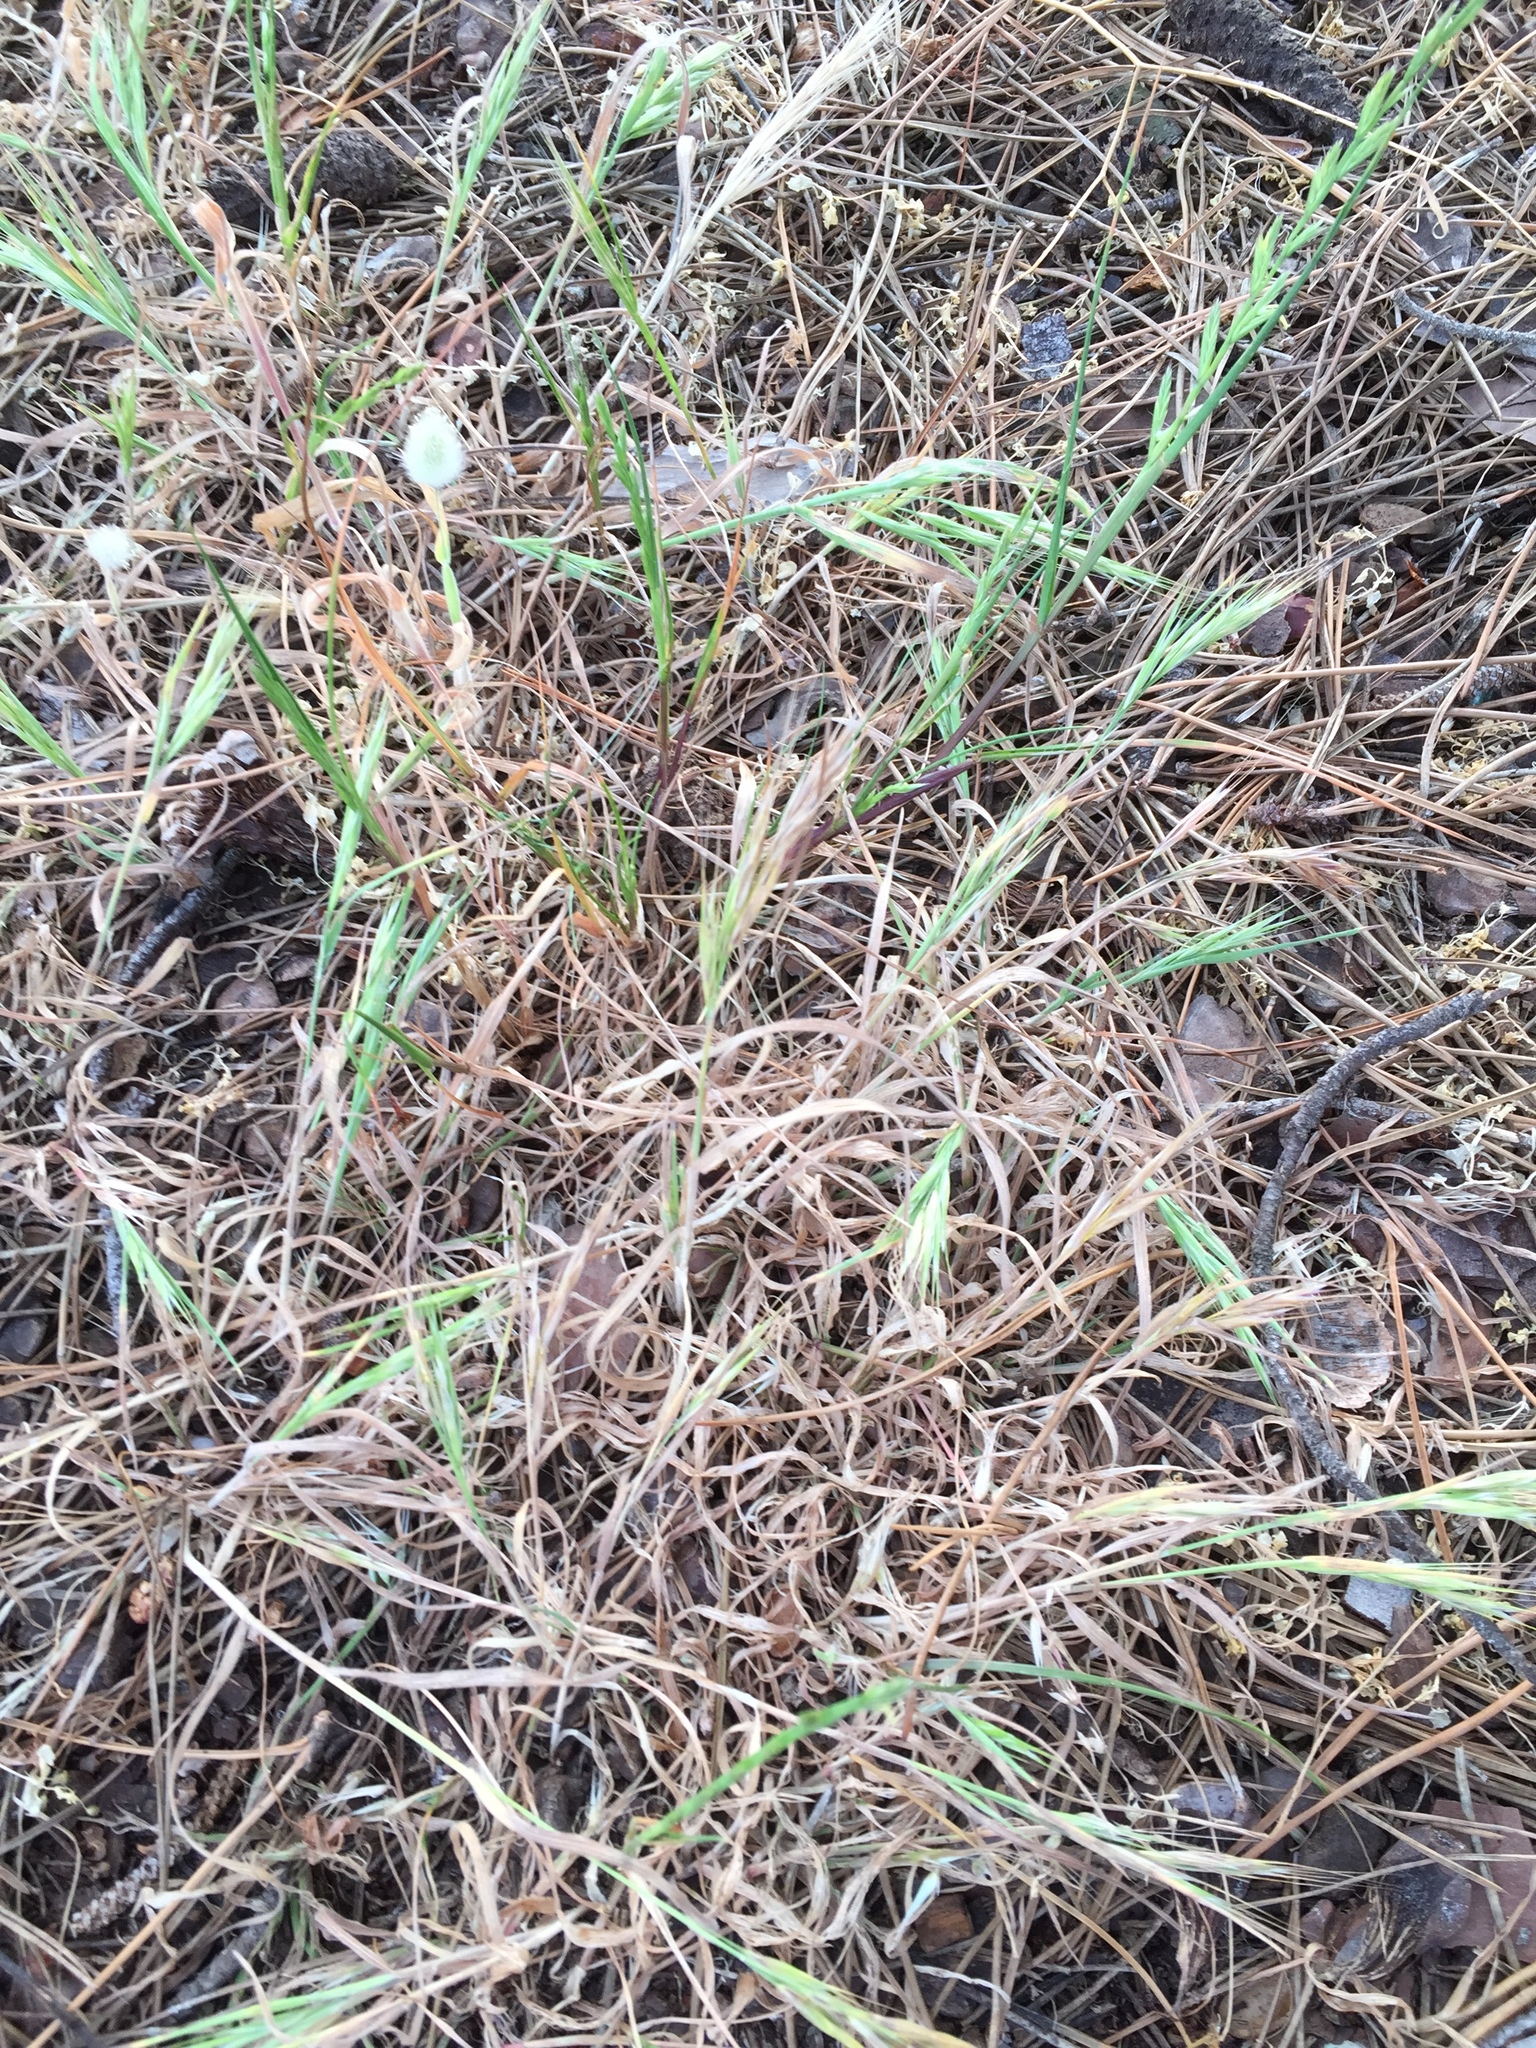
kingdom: Plantae
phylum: Tracheophyta
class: Liliopsida
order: Poales
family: Poaceae
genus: Bromus
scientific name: Bromus diandrus
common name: Ripgut brome
